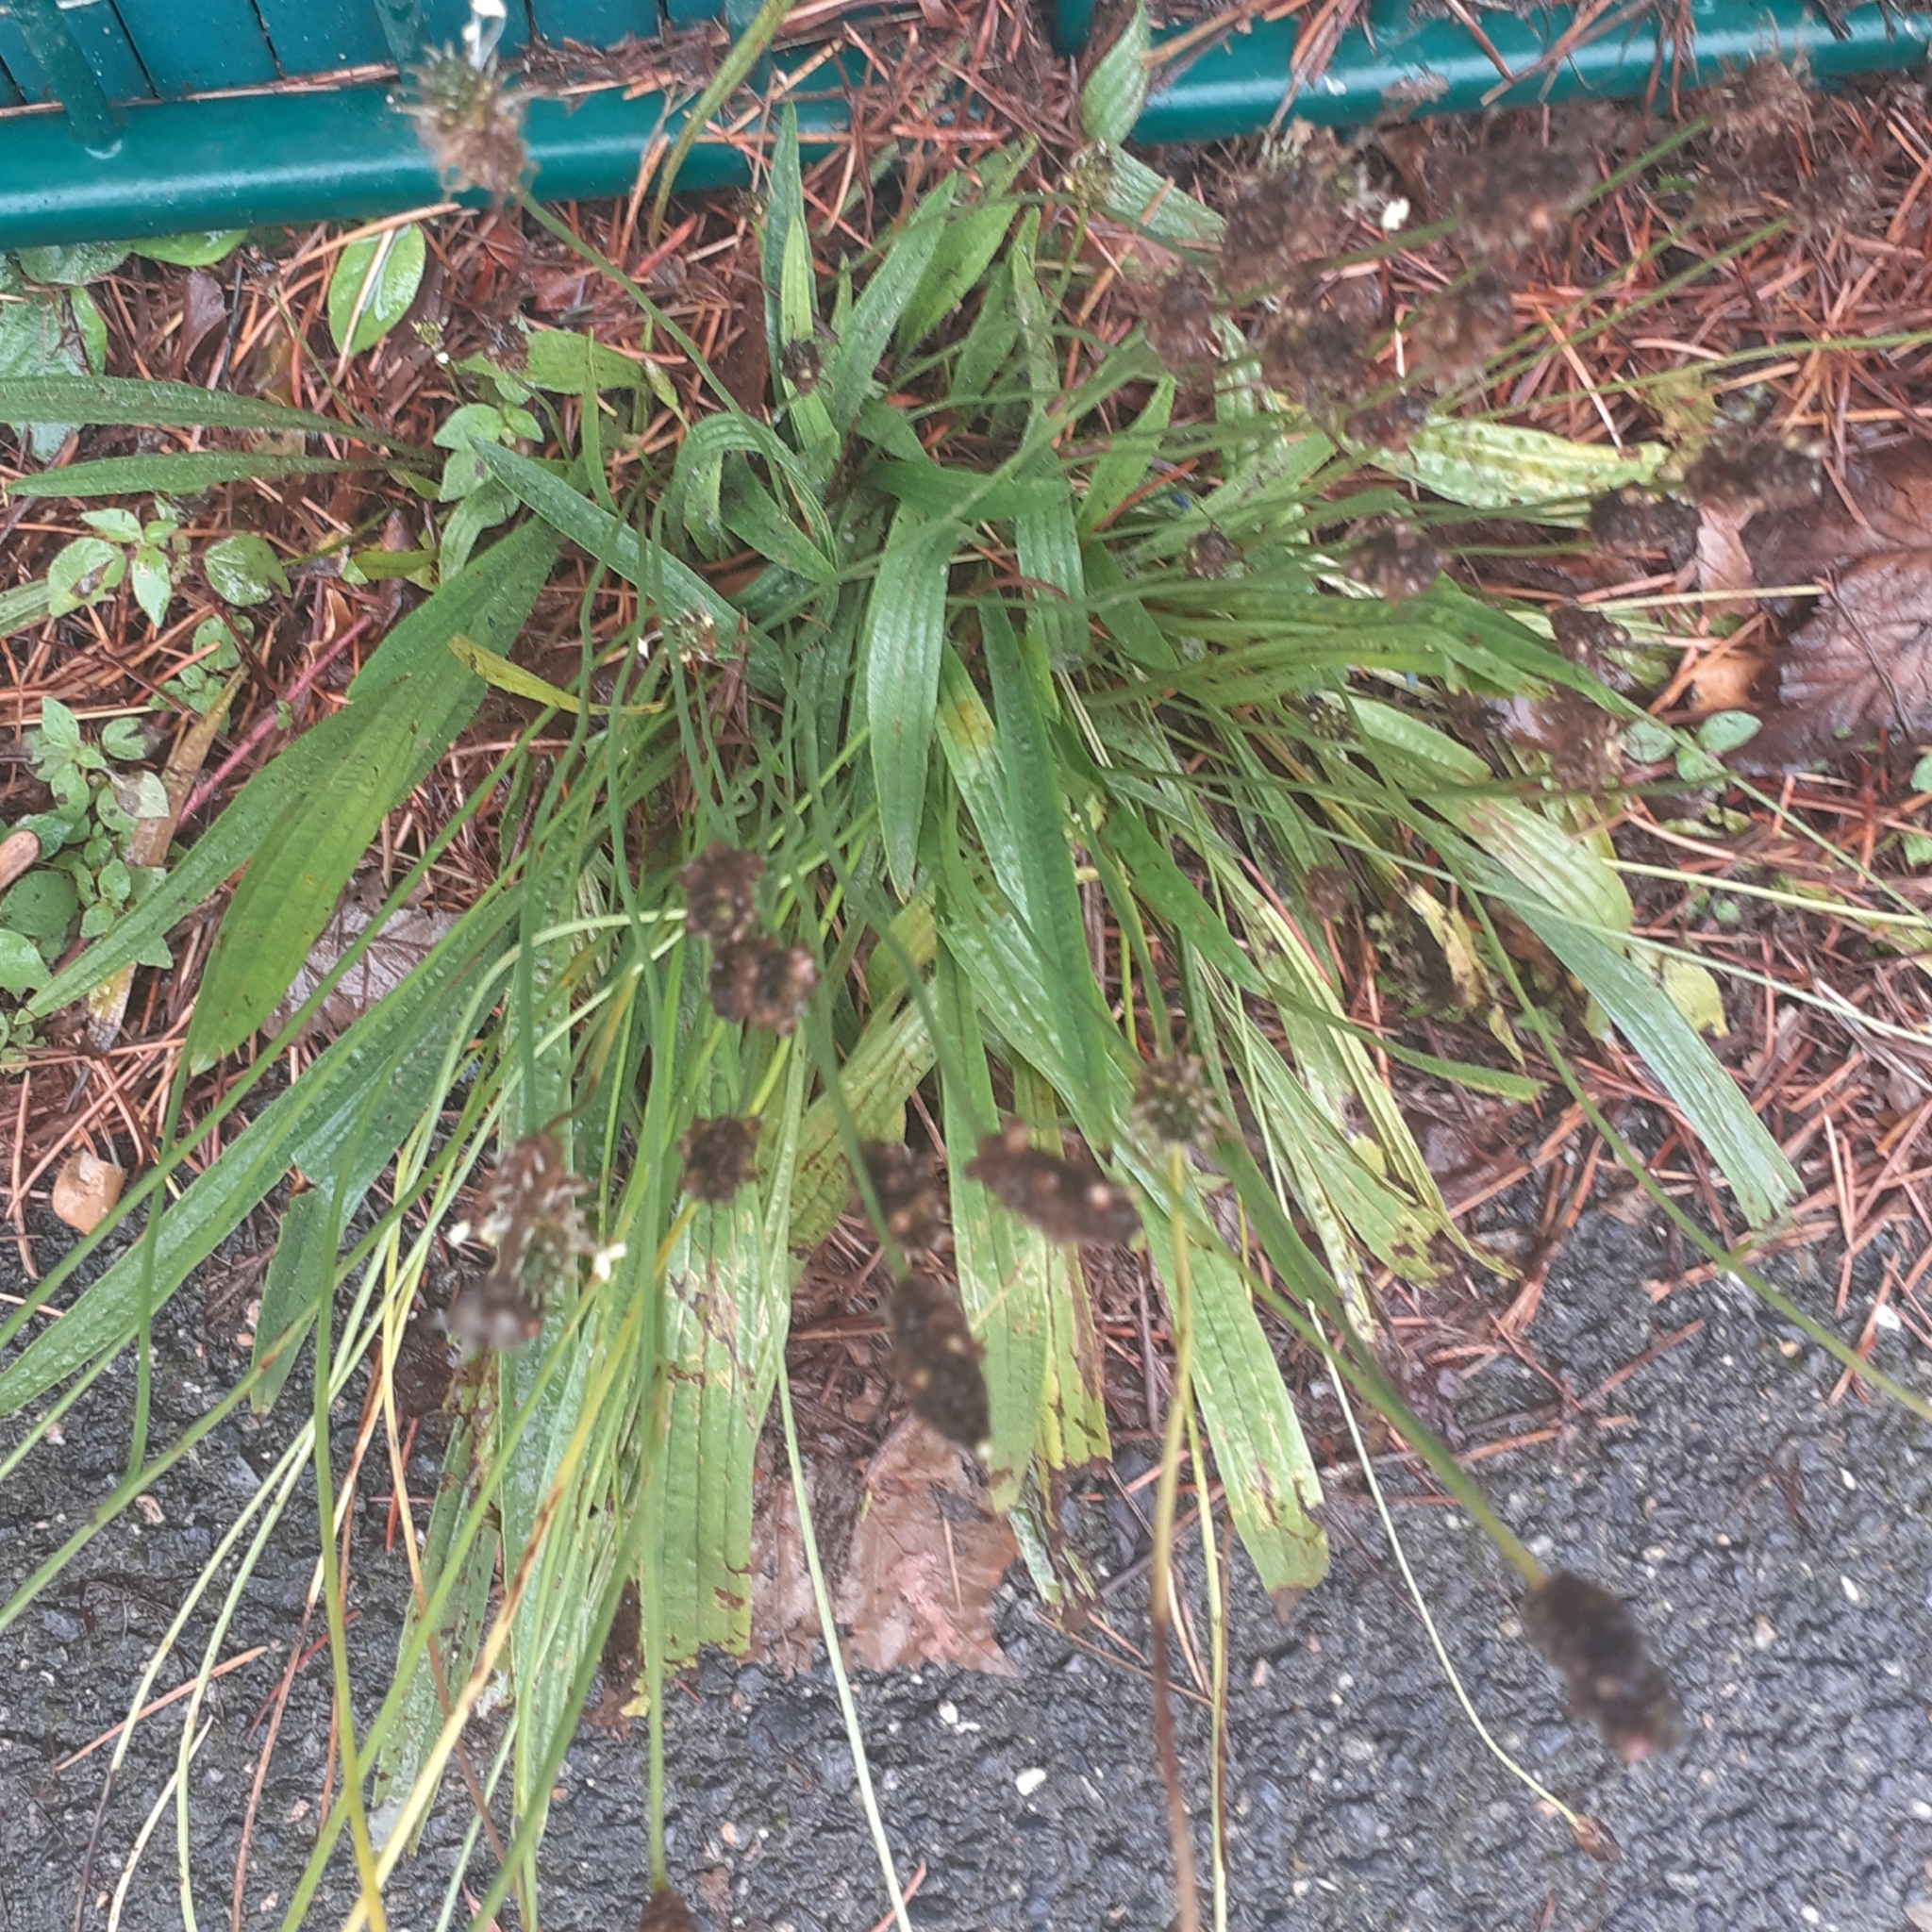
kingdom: Plantae
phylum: Tracheophyta
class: Magnoliopsida
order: Lamiales
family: Plantaginaceae
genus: Plantago
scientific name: Plantago lanceolata
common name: Ribwort plantain
